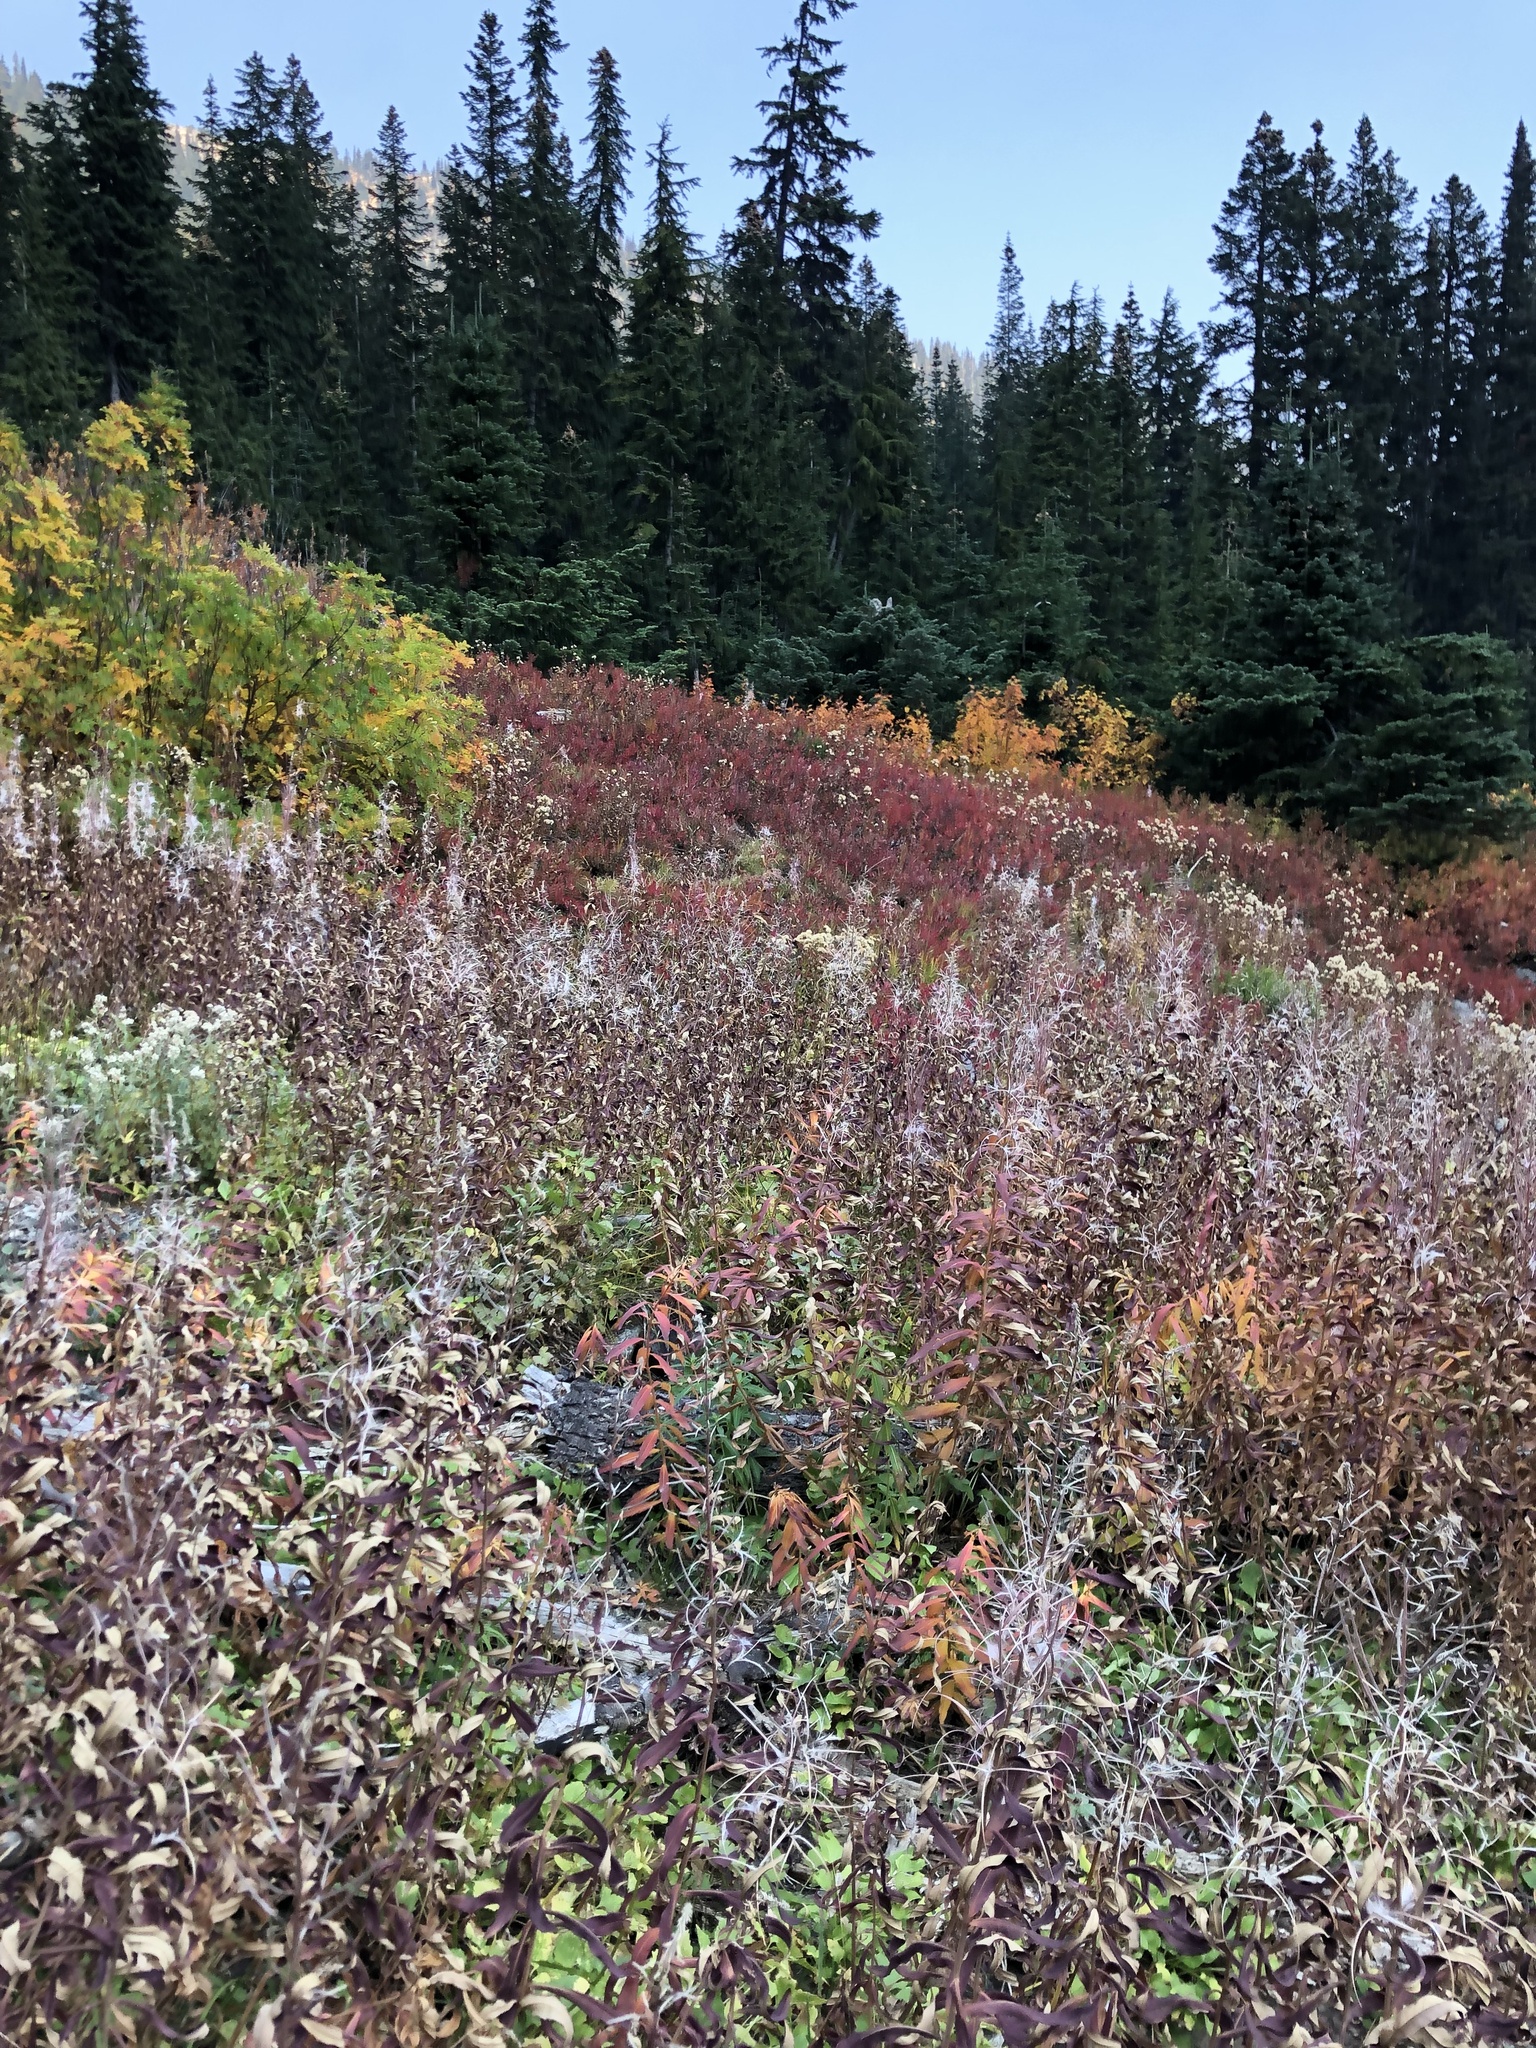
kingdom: Plantae
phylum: Tracheophyta
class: Magnoliopsida
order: Myrtales
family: Onagraceae
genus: Chamaenerion
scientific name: Chamaenerion angustifolium
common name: Fireweed
